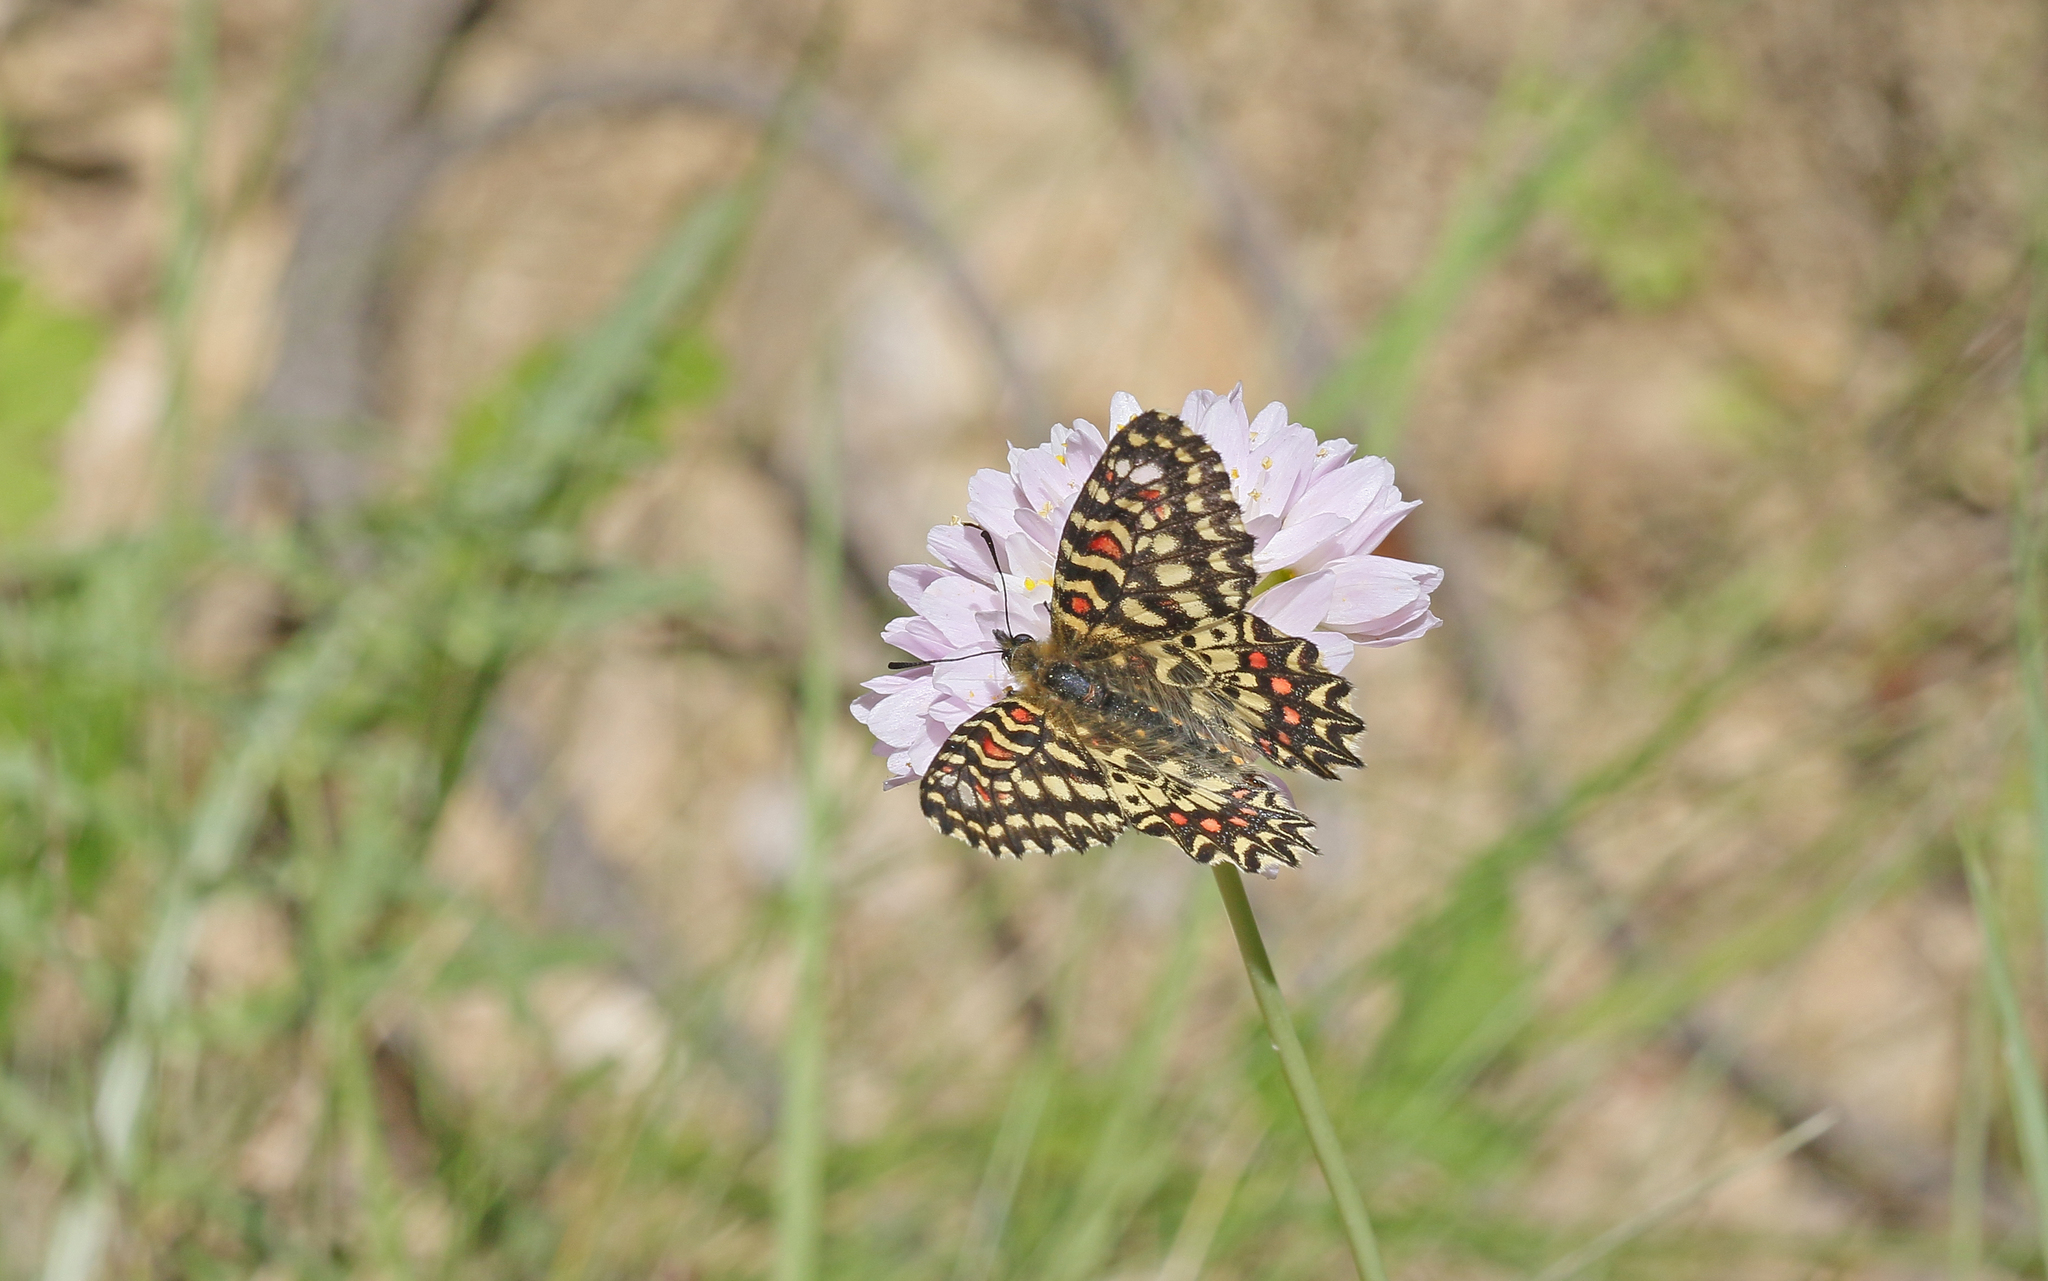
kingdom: Animalia
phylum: Arthropoda
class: Insecta
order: Lepidoptera
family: Papilionidae
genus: Zerynthia
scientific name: Zerynthia rumina
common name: Spanish festoon
